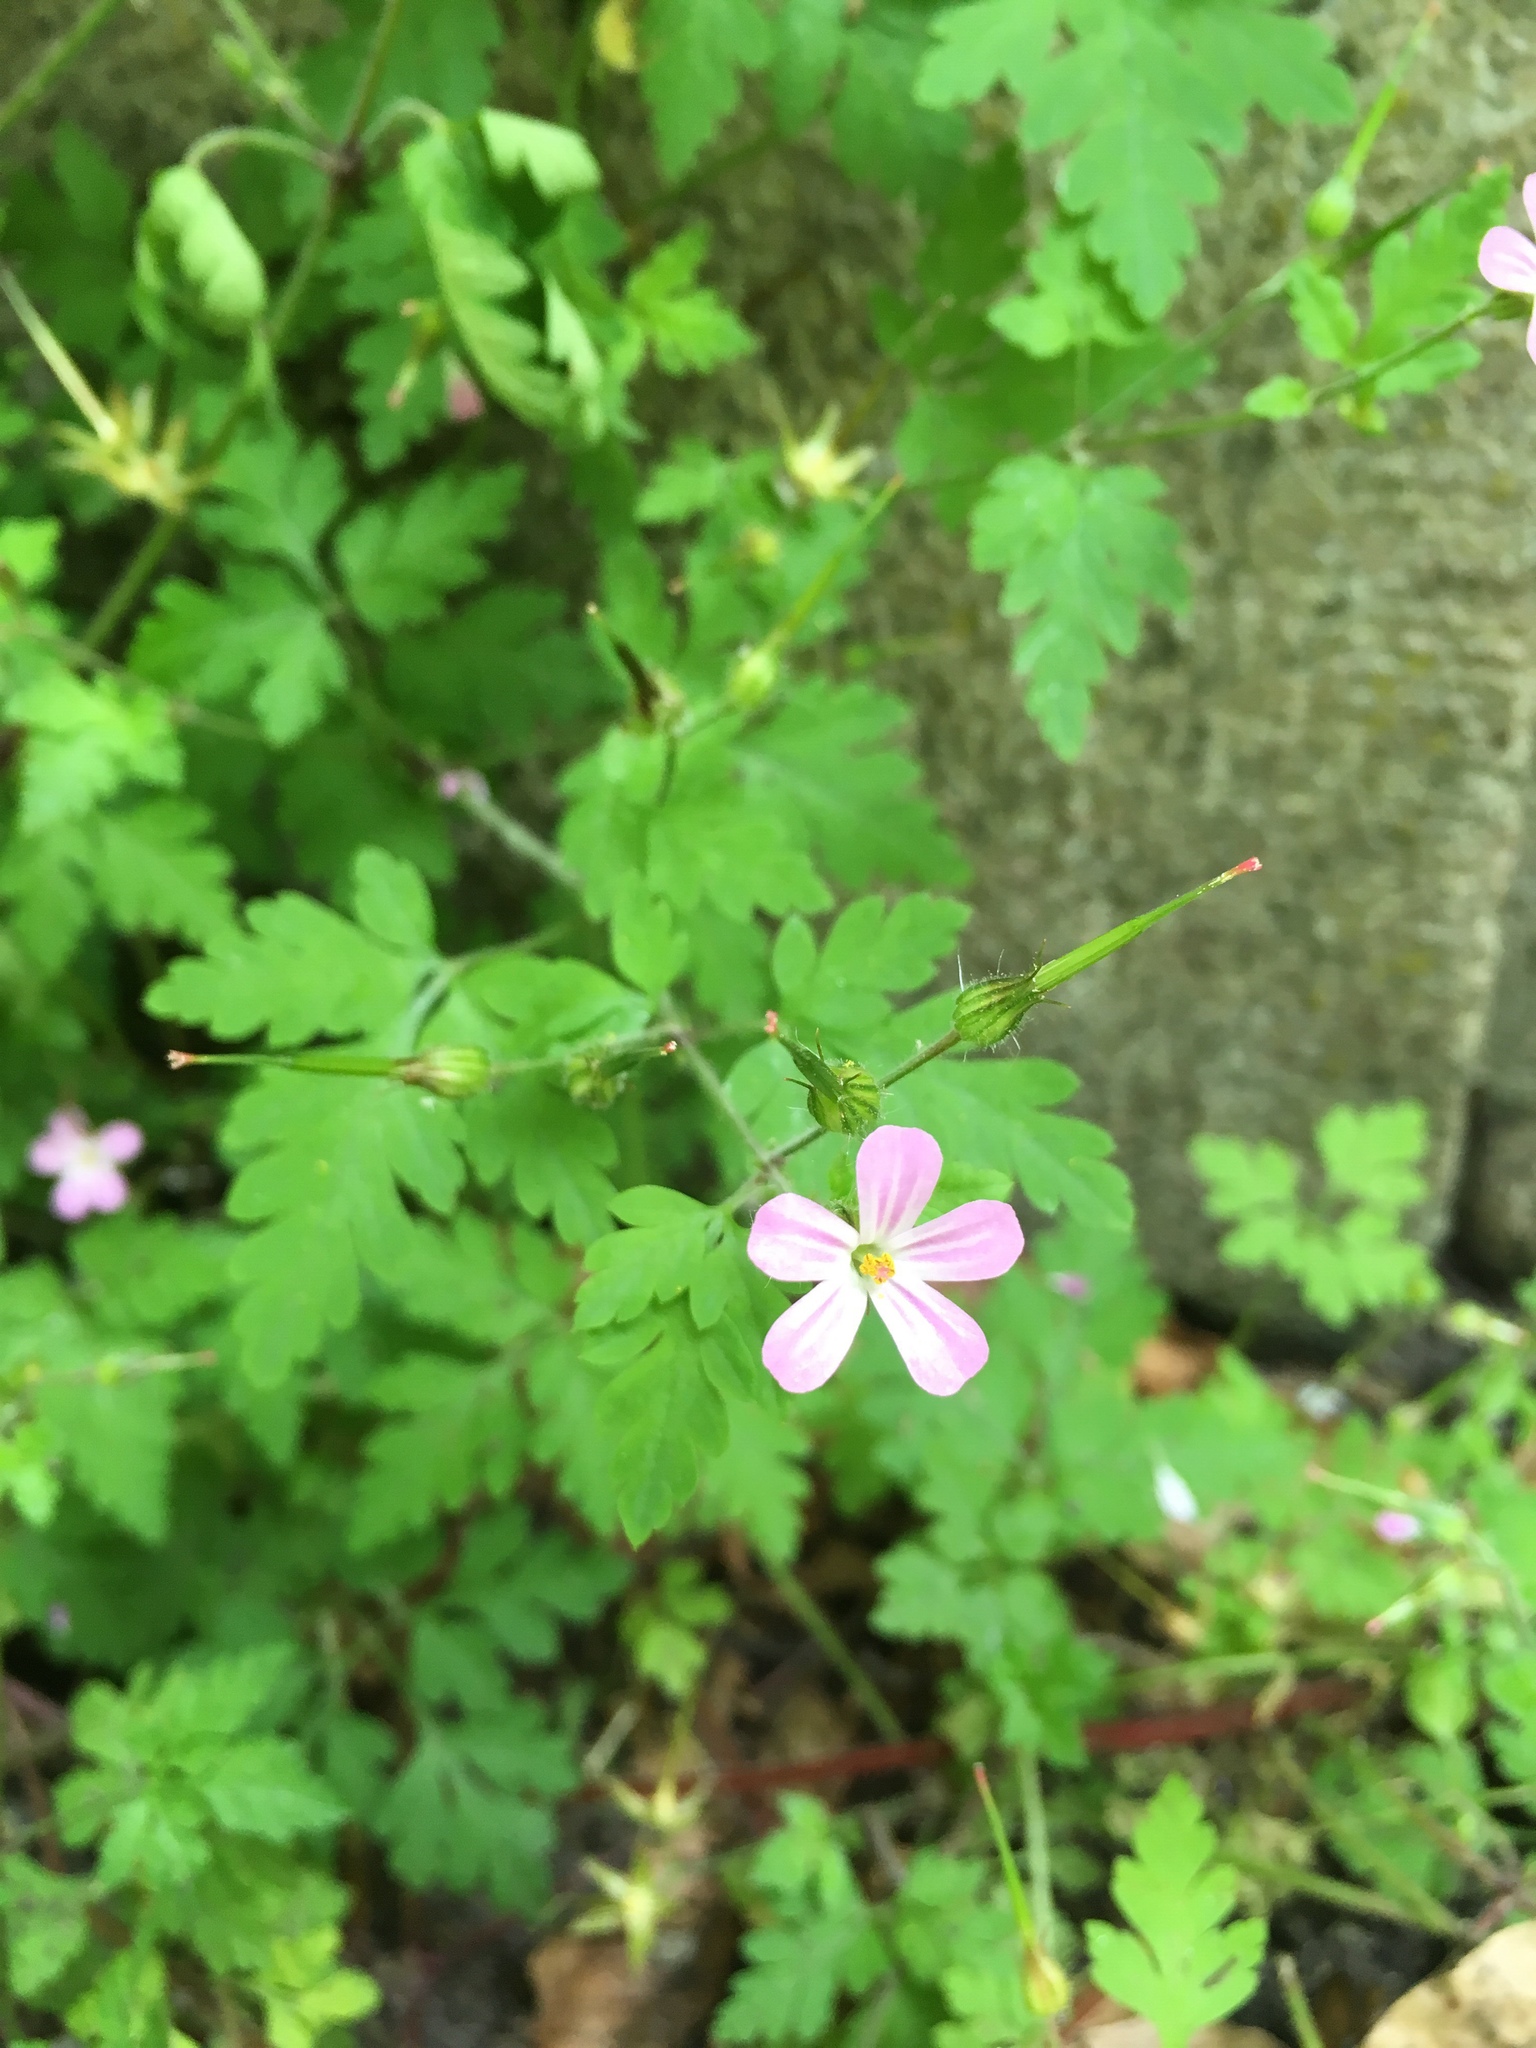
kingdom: Plantae
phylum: Tracheophyta
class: Magnoliopsida
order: Geraniales
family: Geraniaceae
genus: Geranium
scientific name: Geranium robertianum
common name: Herb-robert
